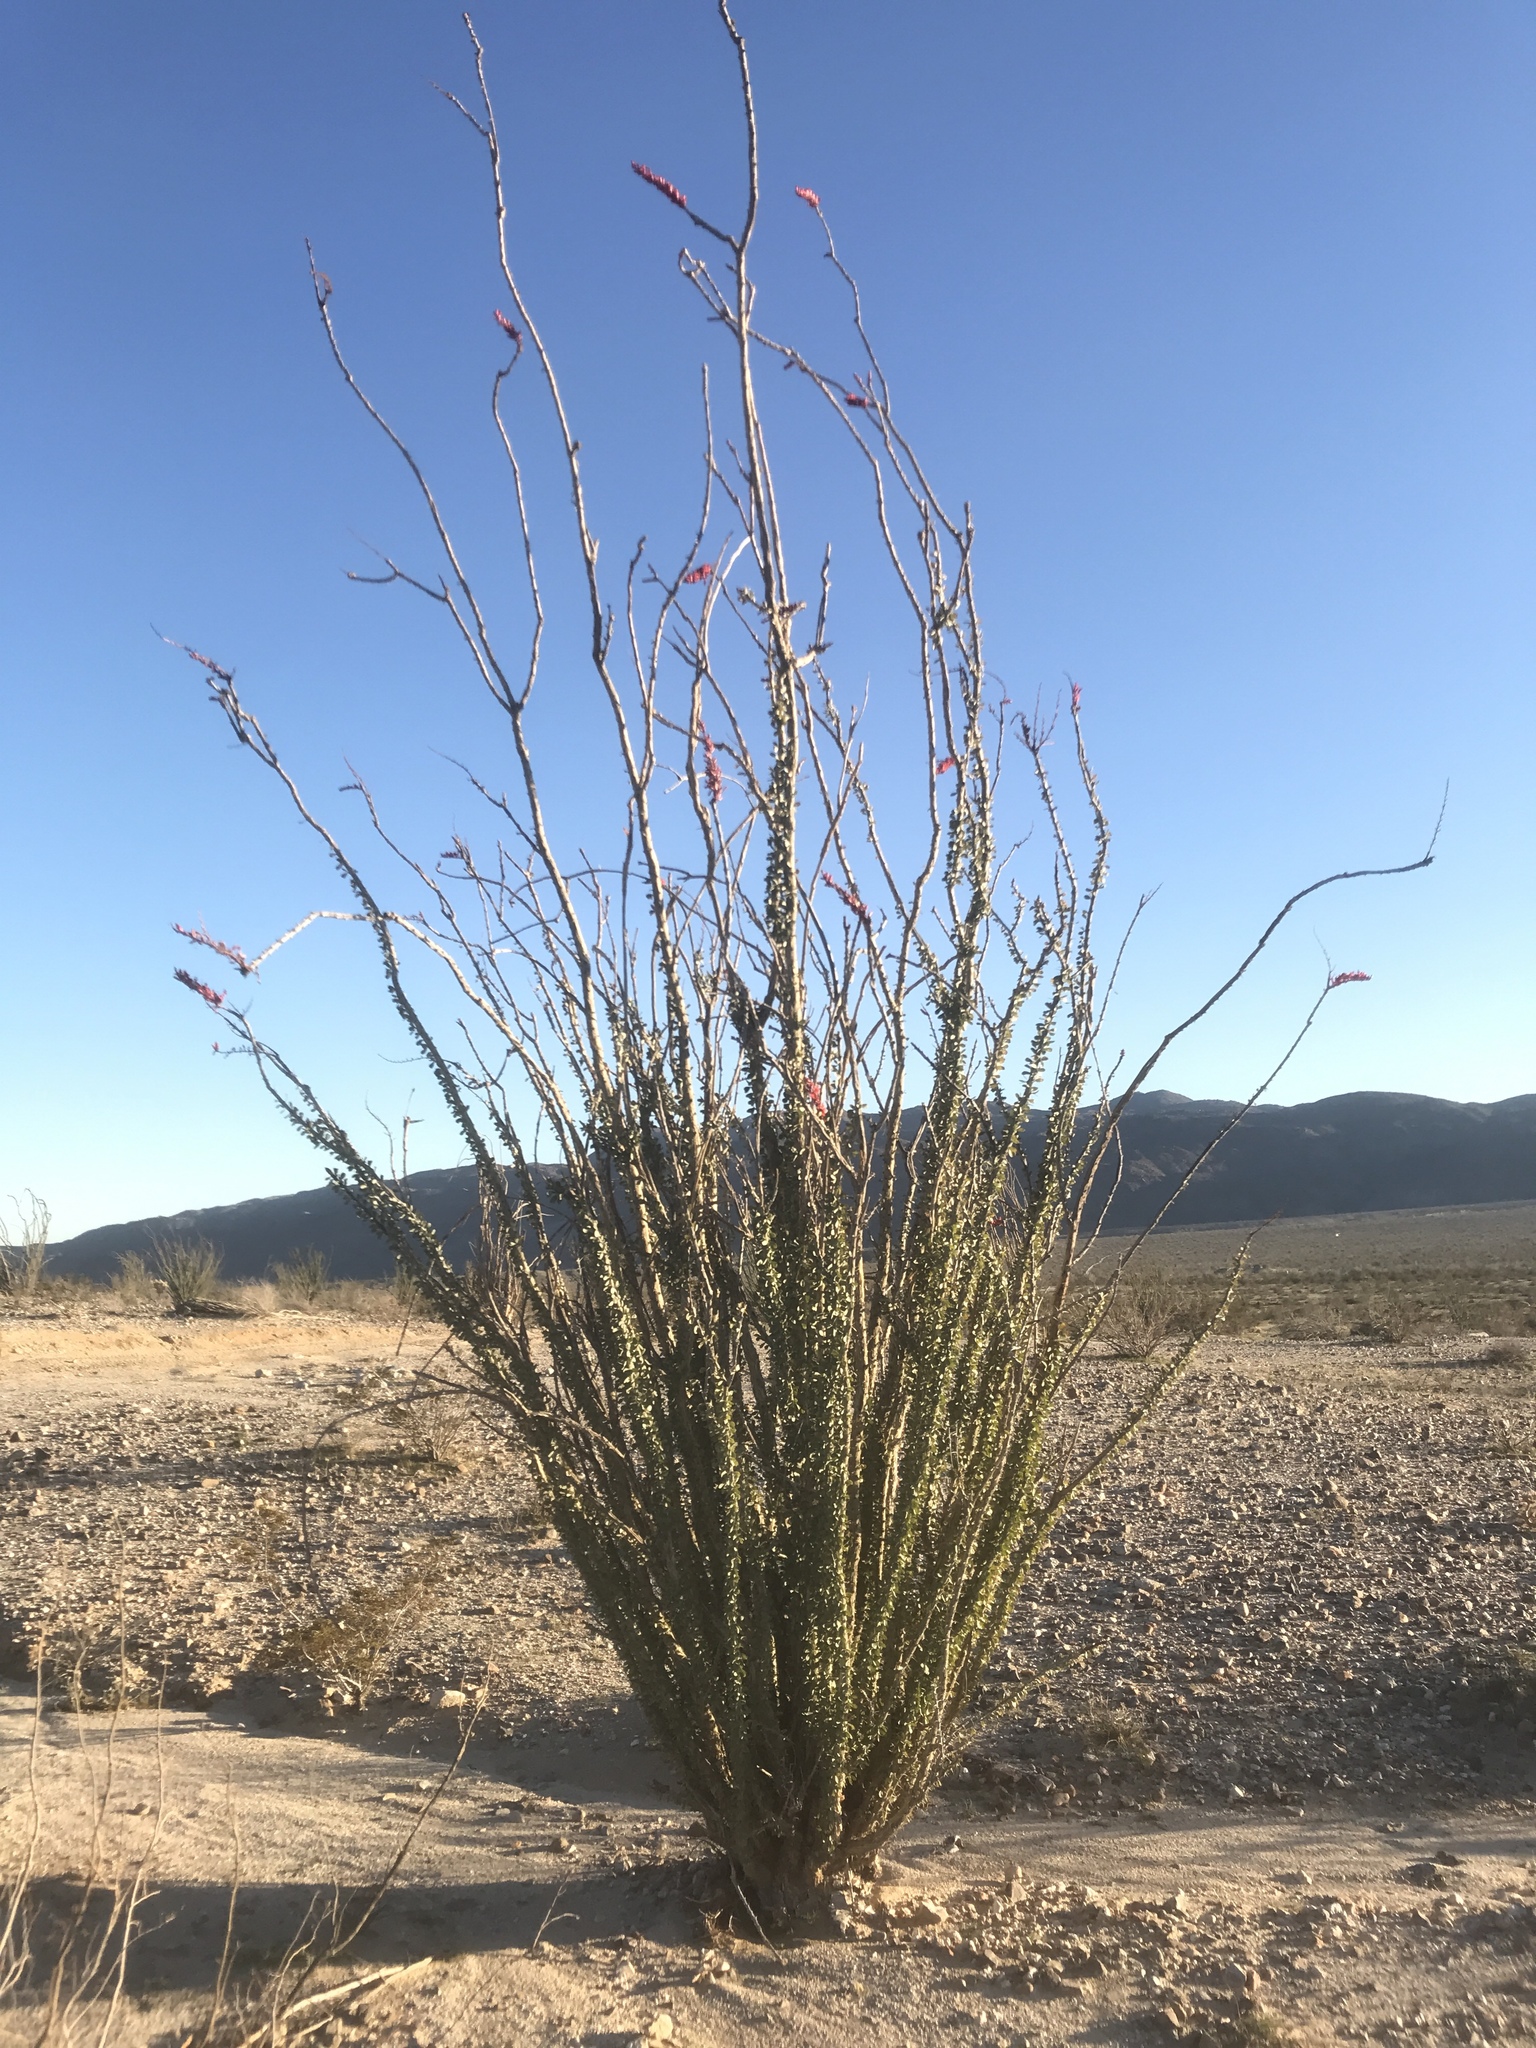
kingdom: Plantae
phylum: Tracheophyta
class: Magnoliopsida
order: Ericales
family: Fouquieriaceae
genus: Fouquieria
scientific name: Fouquieria splendens
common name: Vine-cactus
